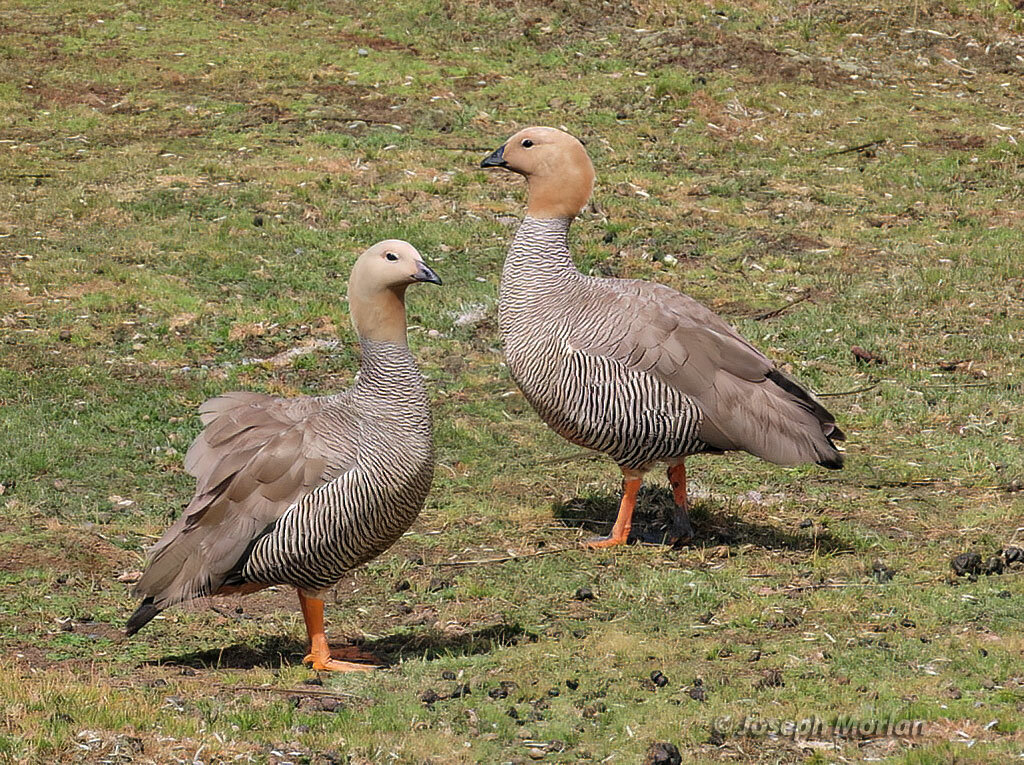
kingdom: Animalia
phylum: Chordata
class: Aves
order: Anseriformes
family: Anatidae
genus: Chloephaga
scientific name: Chloephaga rubidiceps
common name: Ruddy-headed goose
